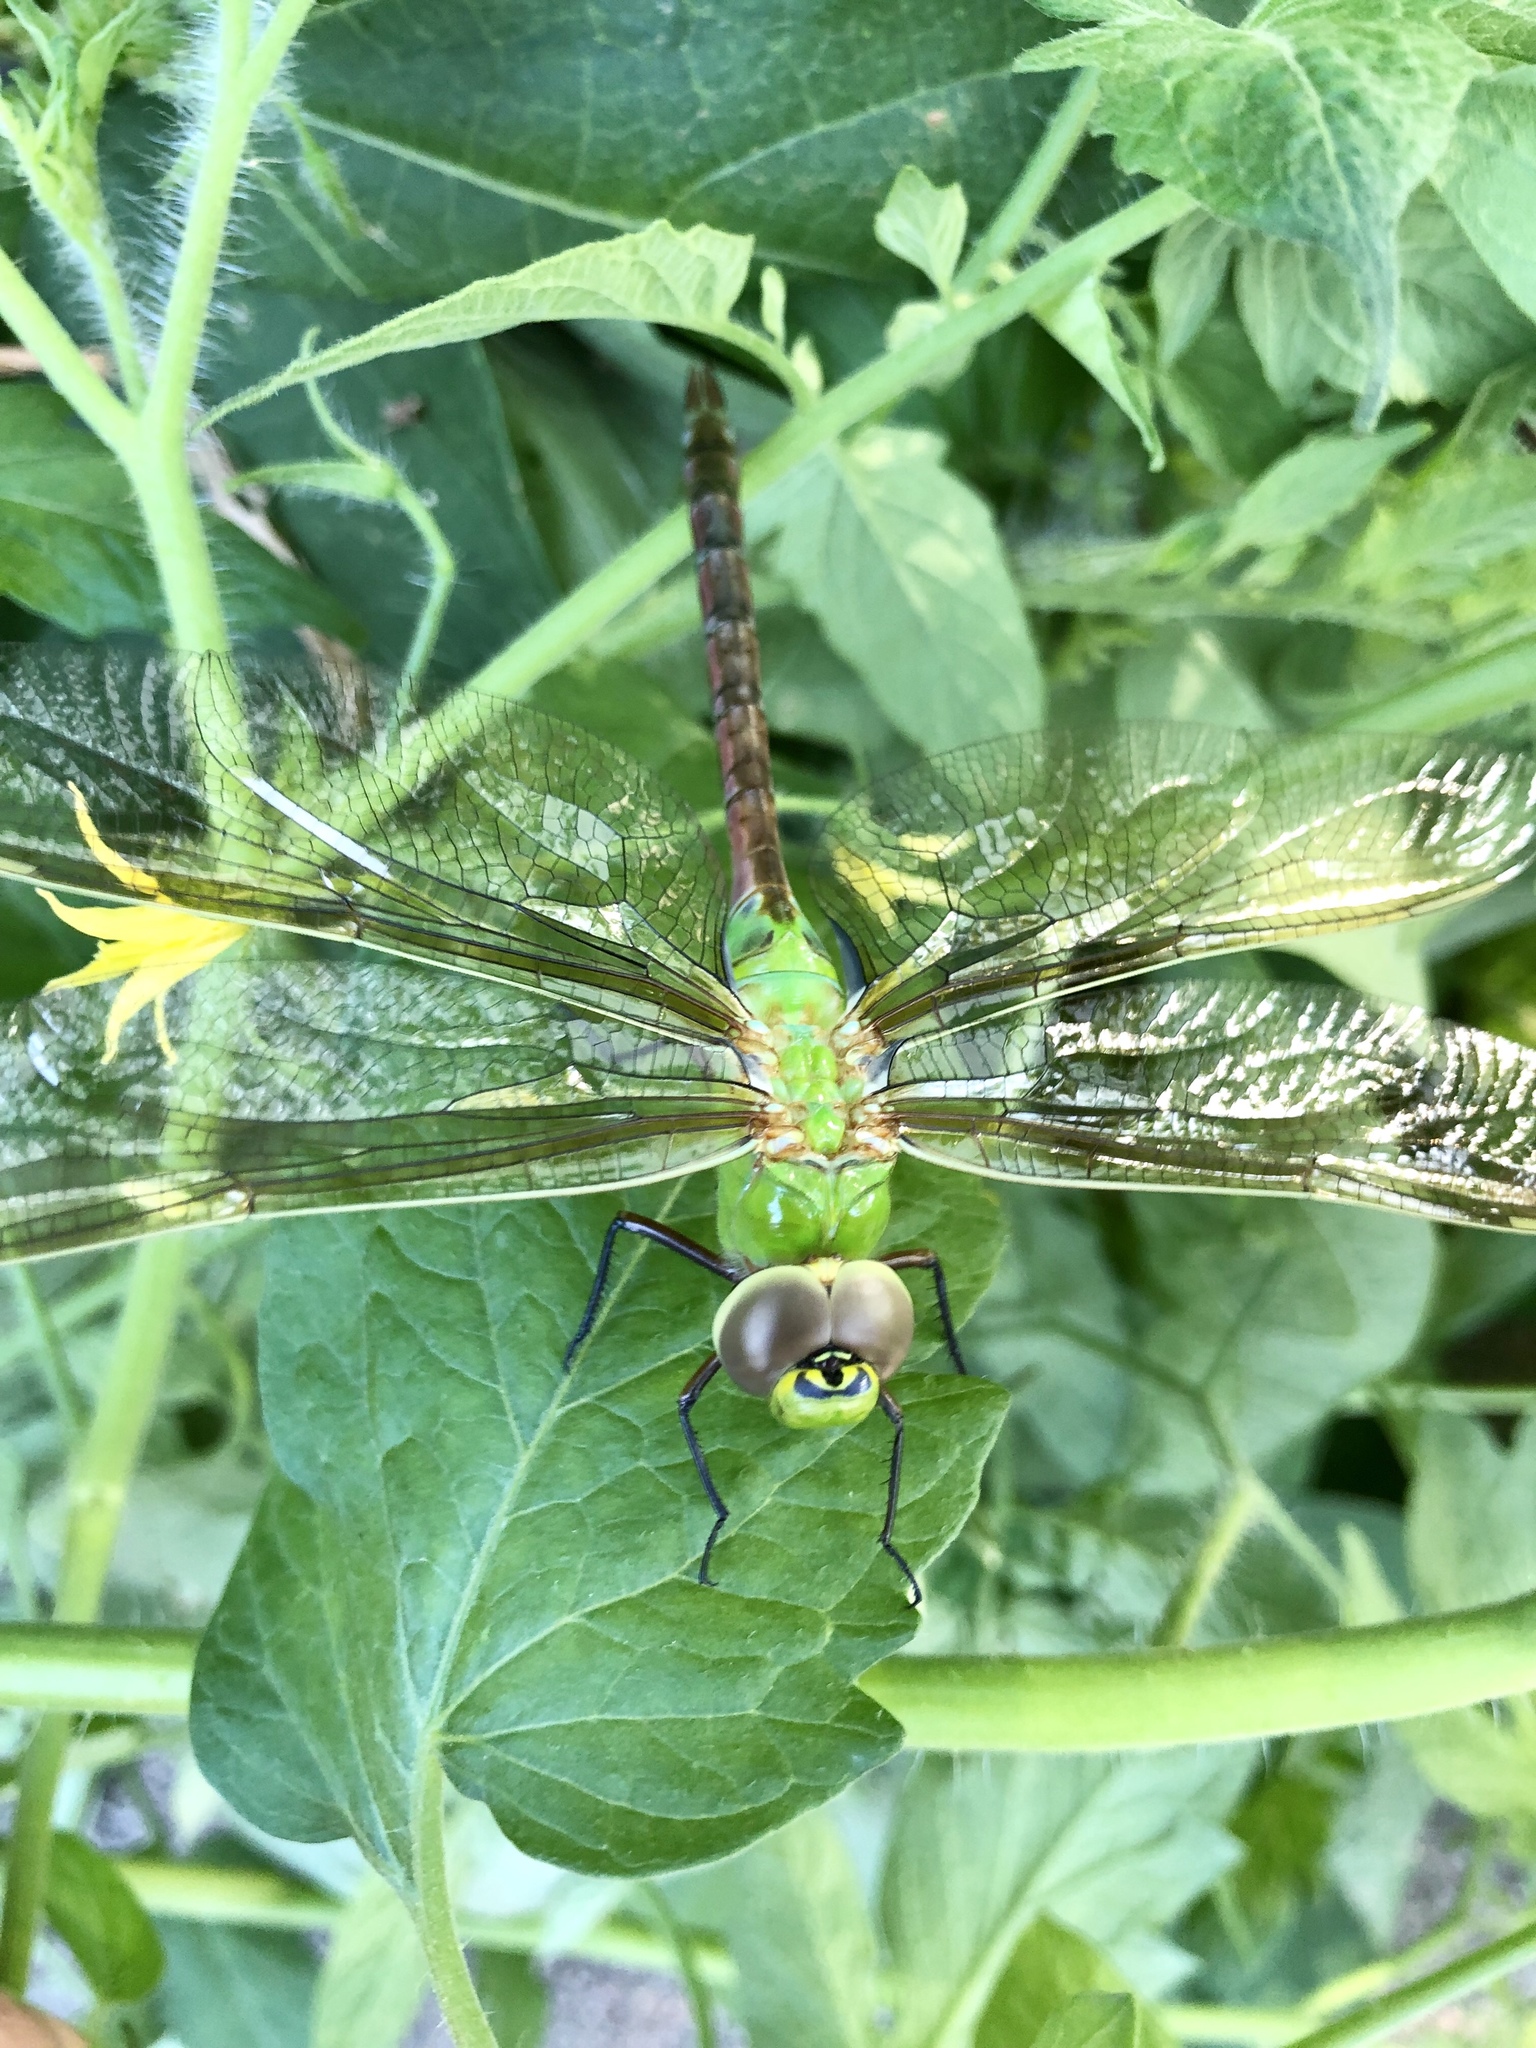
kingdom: Animalia
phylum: Arthropoda
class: Insecta
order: Odonata
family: Aeshnidae
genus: Anax
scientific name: Anax junius
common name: Common green darner
